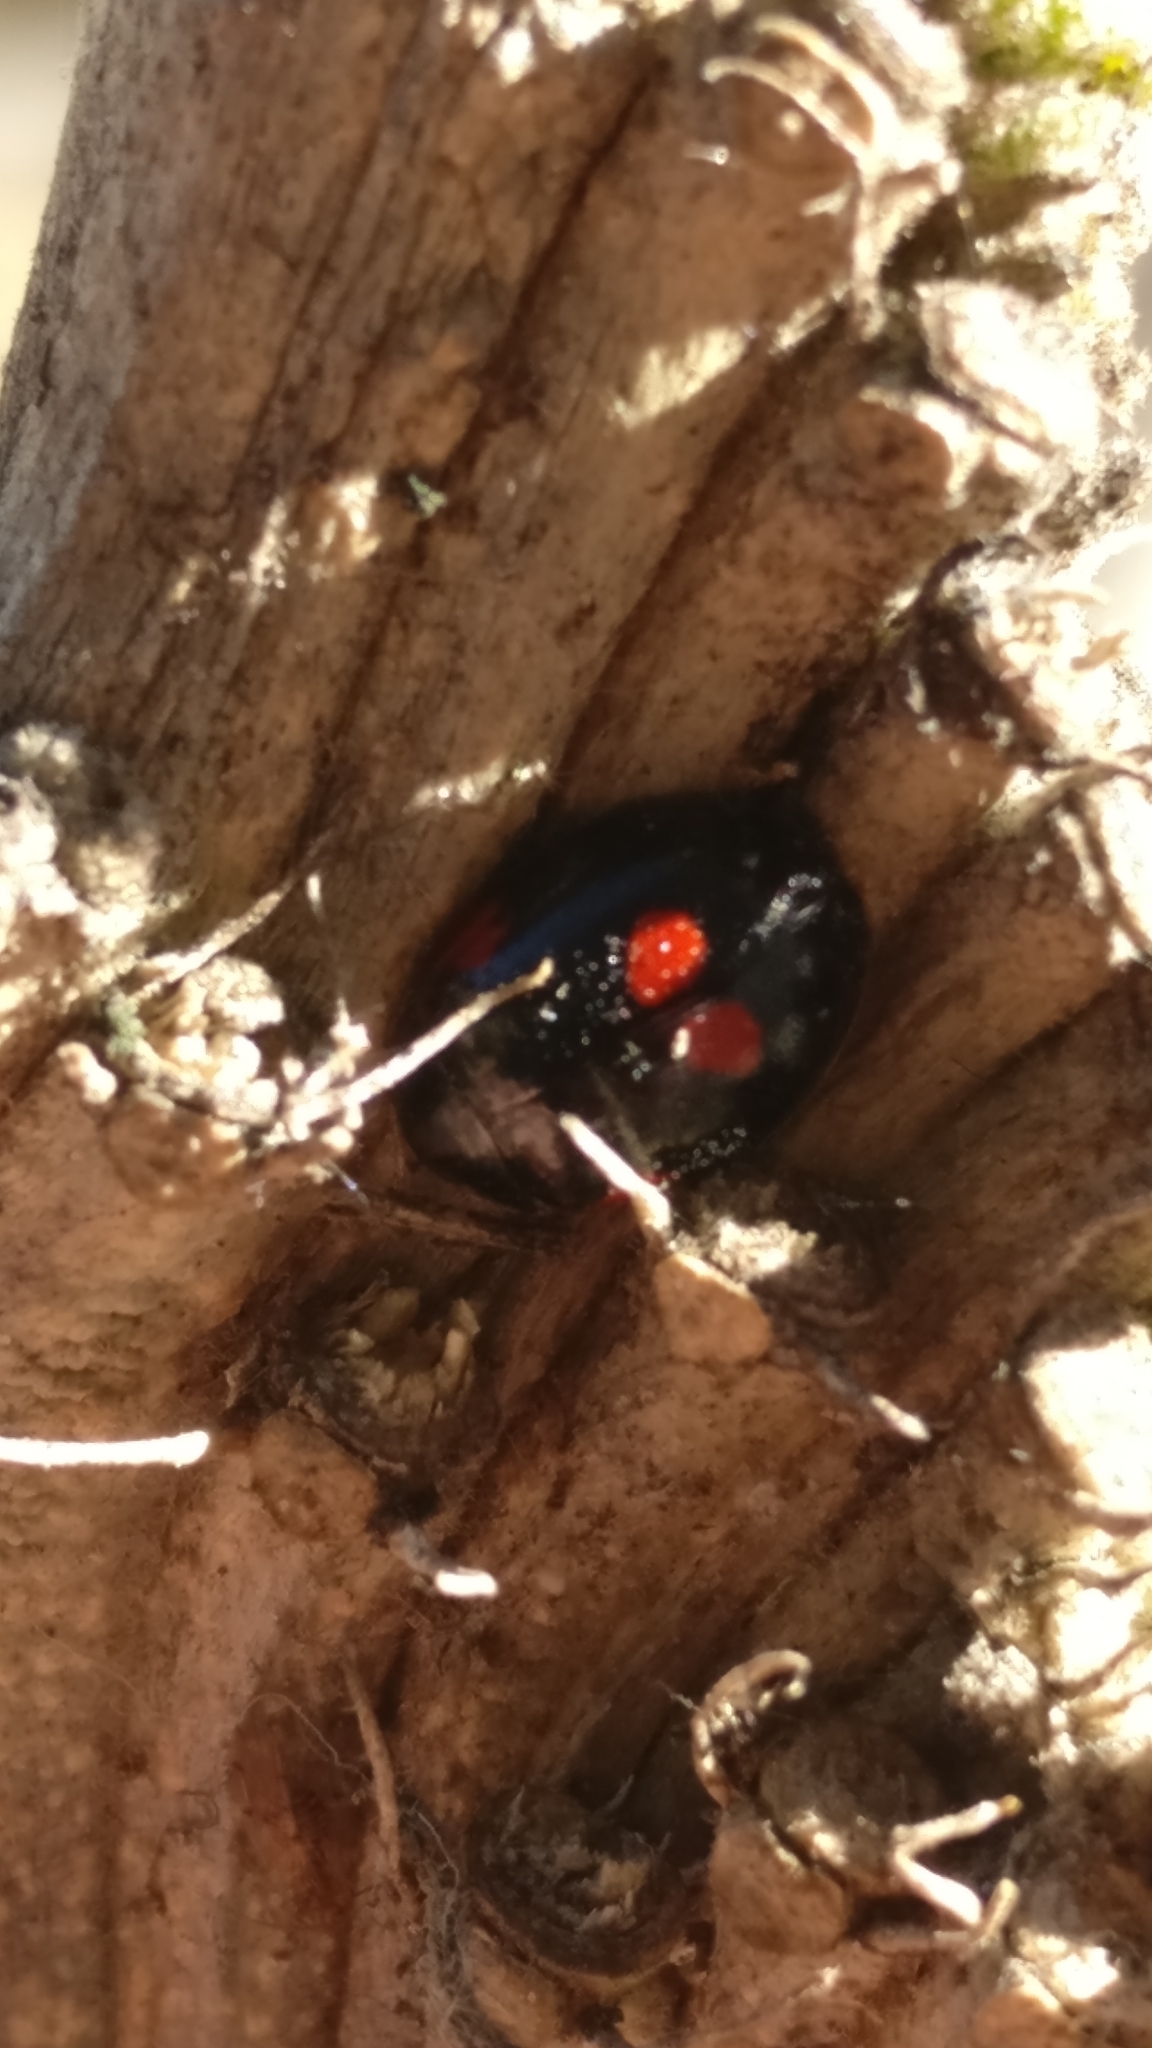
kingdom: Animalia
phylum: Arthropoda
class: Insecta
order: Coleoptera
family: Coccinellidae
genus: Adalia
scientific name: Adalia bipunctata
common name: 2-spot ladybird
